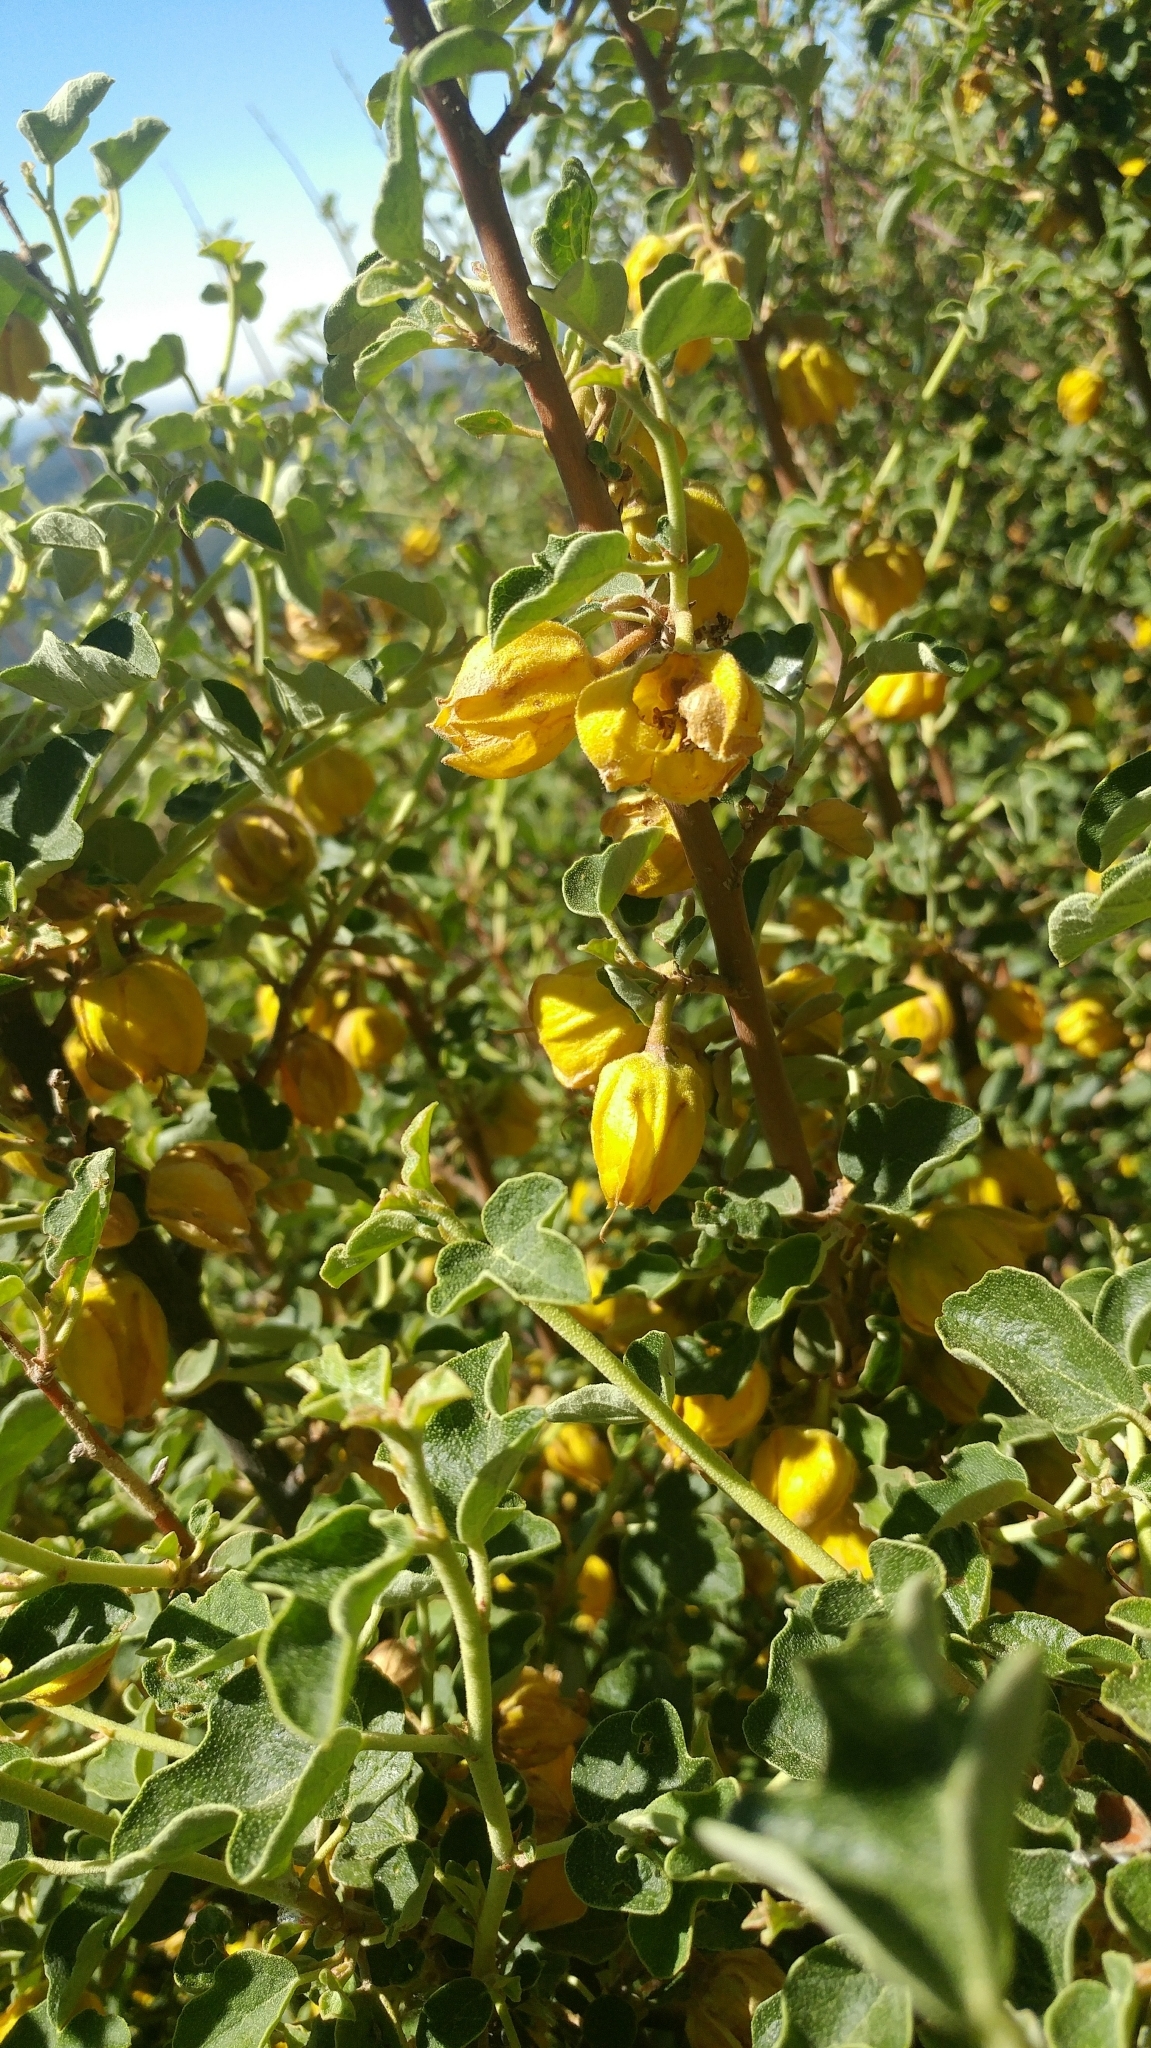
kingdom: Plantae
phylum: Tracheophyta
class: Magnoliopsida
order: Malvales
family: Malvaceae
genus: Fremontodendron
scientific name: Fremontodendron californicum
